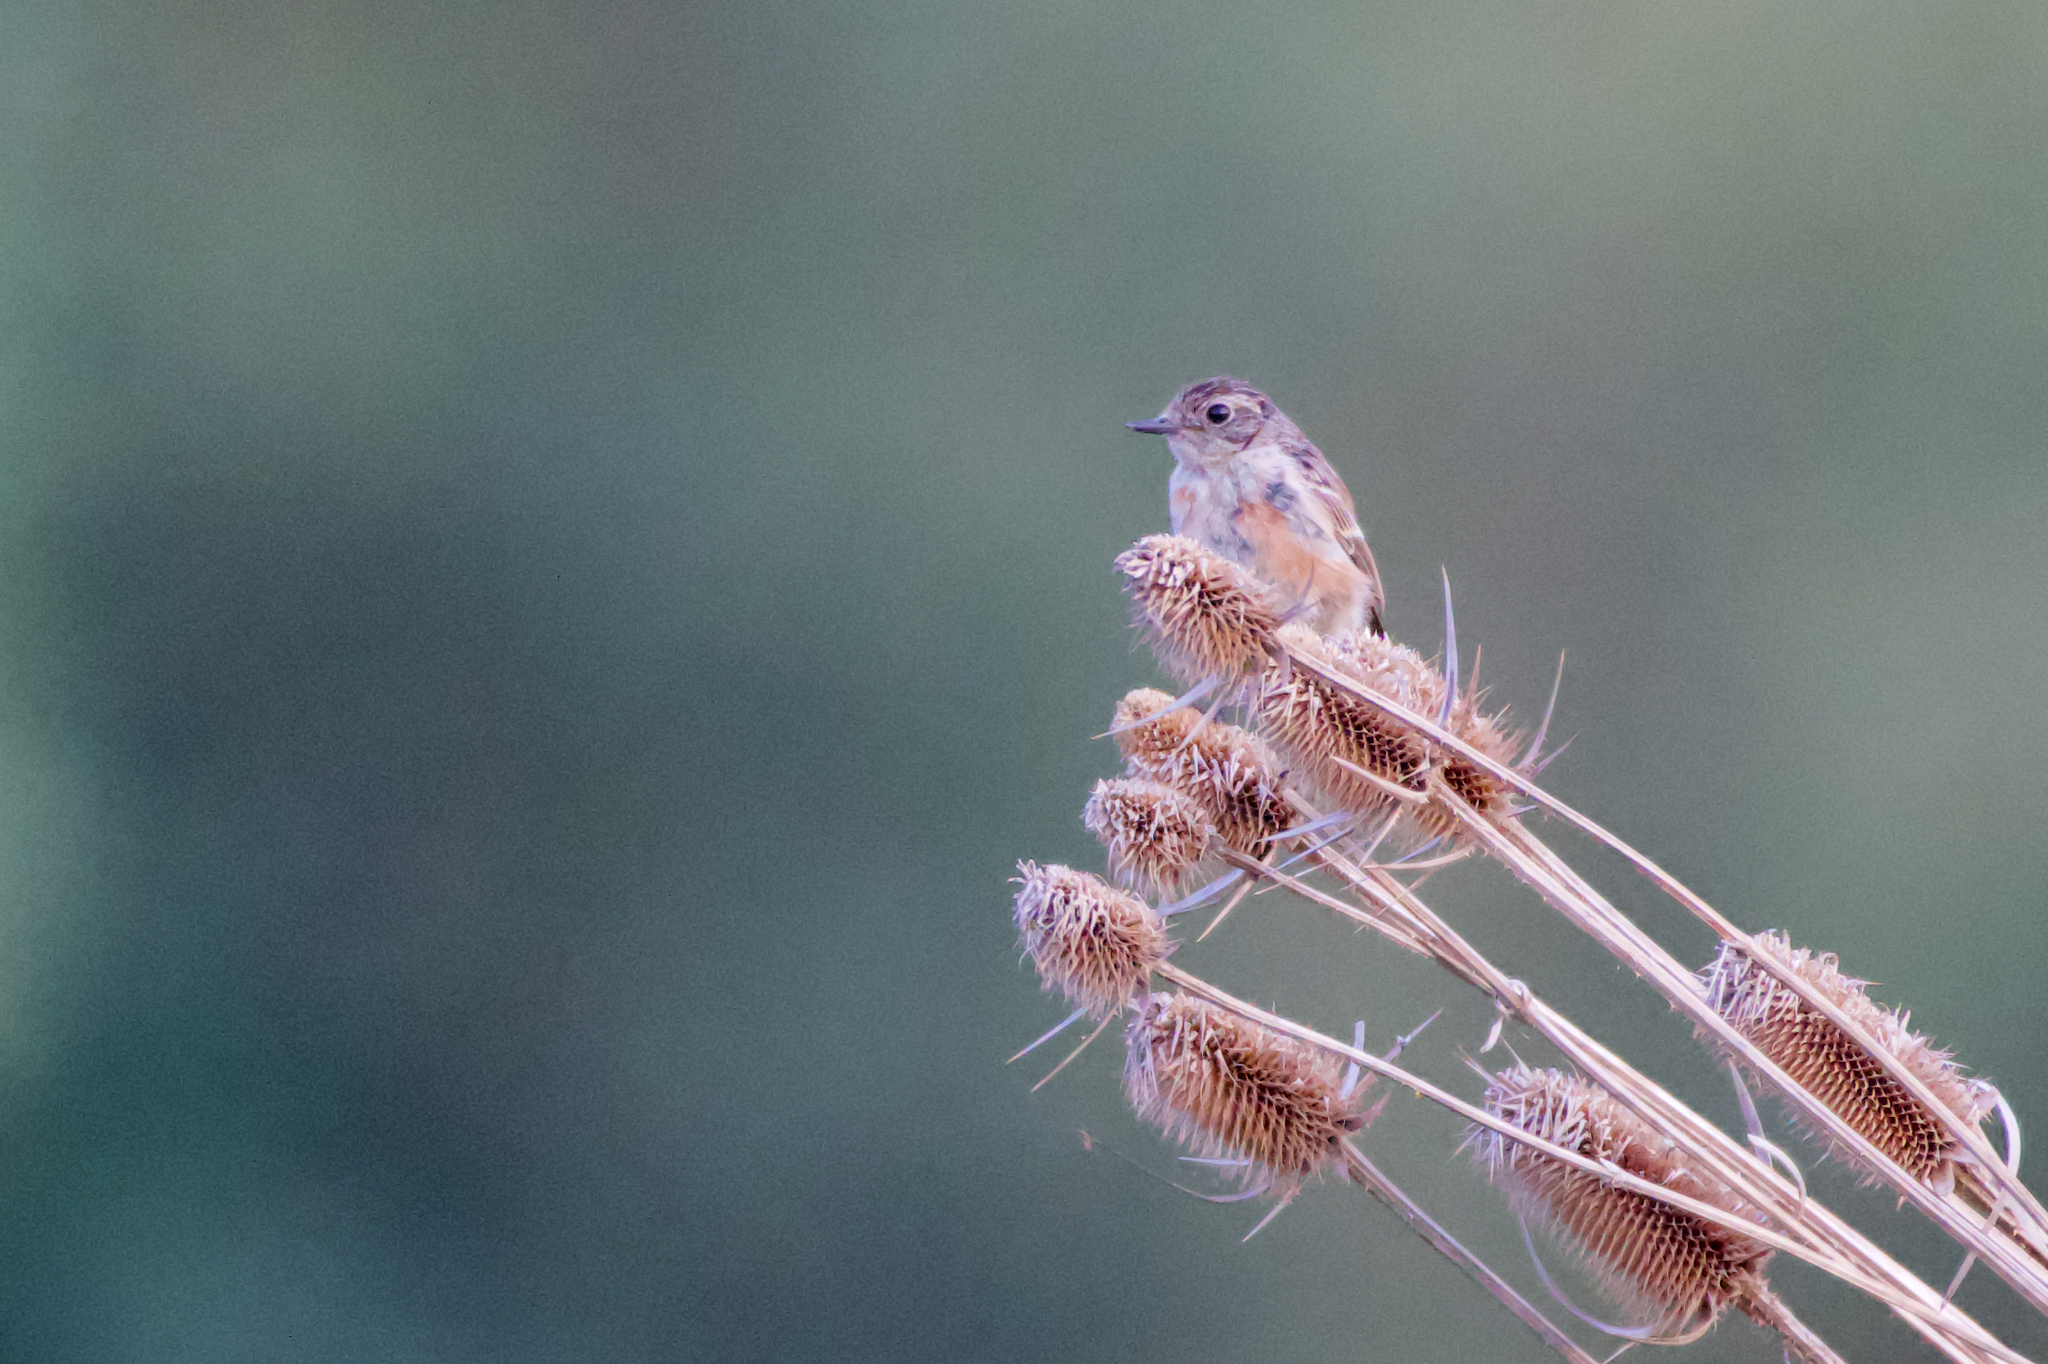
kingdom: Animalia
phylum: Chordata
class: Aves
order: Passeriformes
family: Muscicapidae
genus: Saxicola
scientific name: Saxicola rubicola
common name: European stonechat
